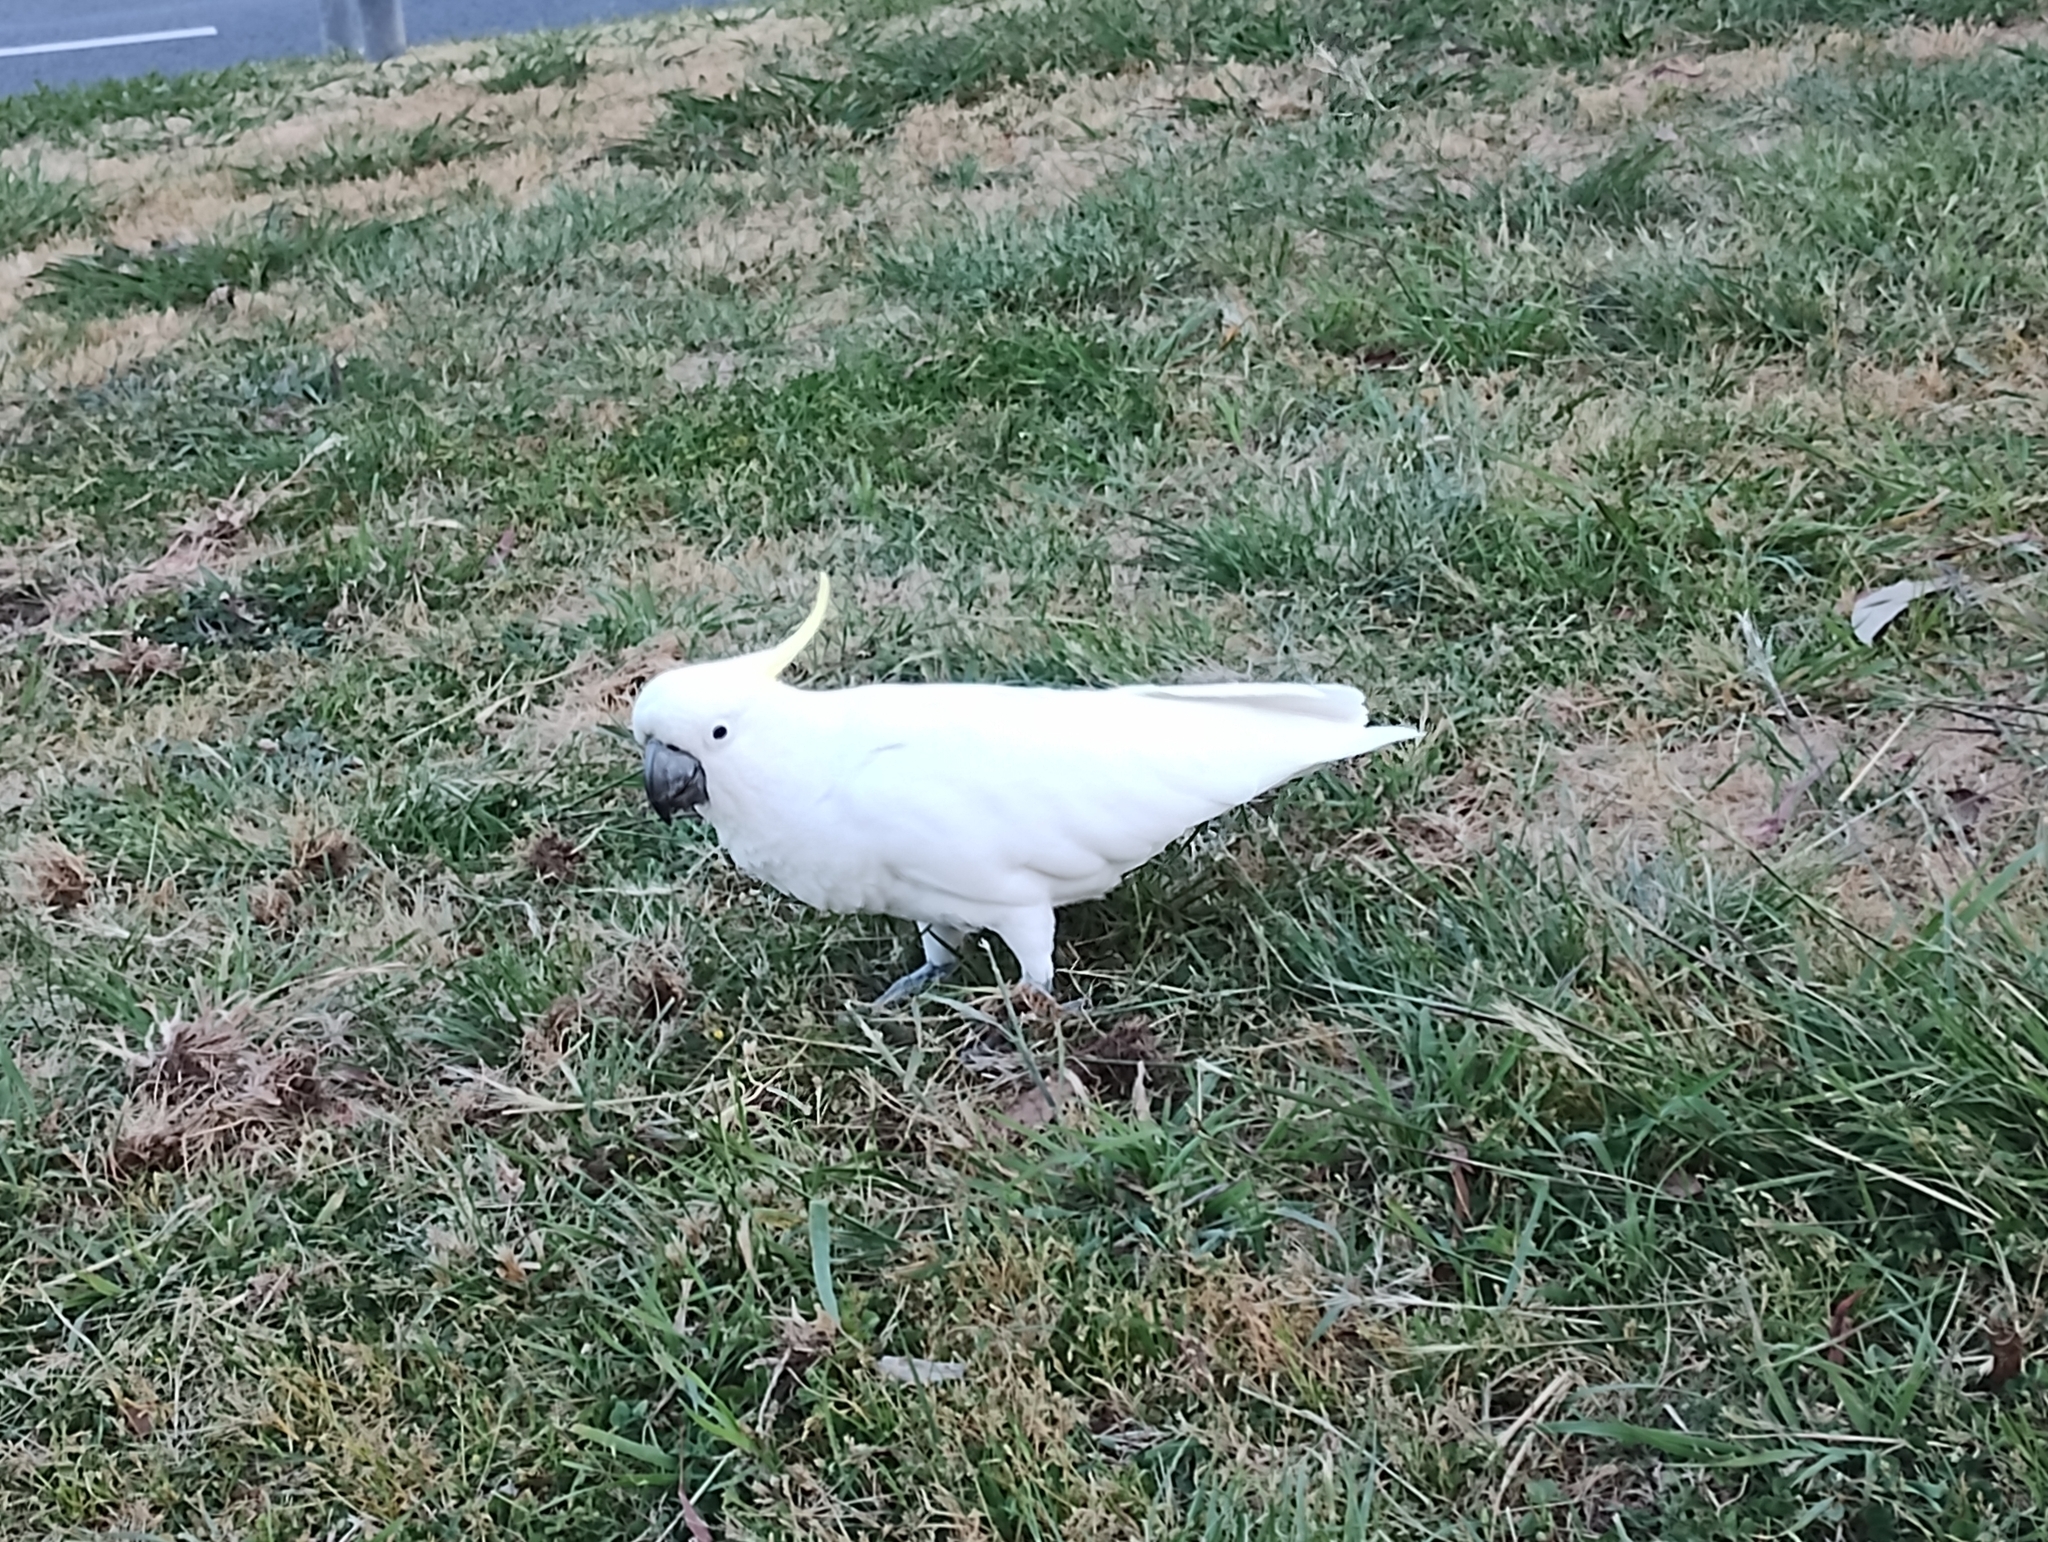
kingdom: Animalia
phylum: Chordata
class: Aves
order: Psittaciformes
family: Psittacidae
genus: Cacatua
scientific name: Cacatua galerita
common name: Sulphur-crested cockatoo
